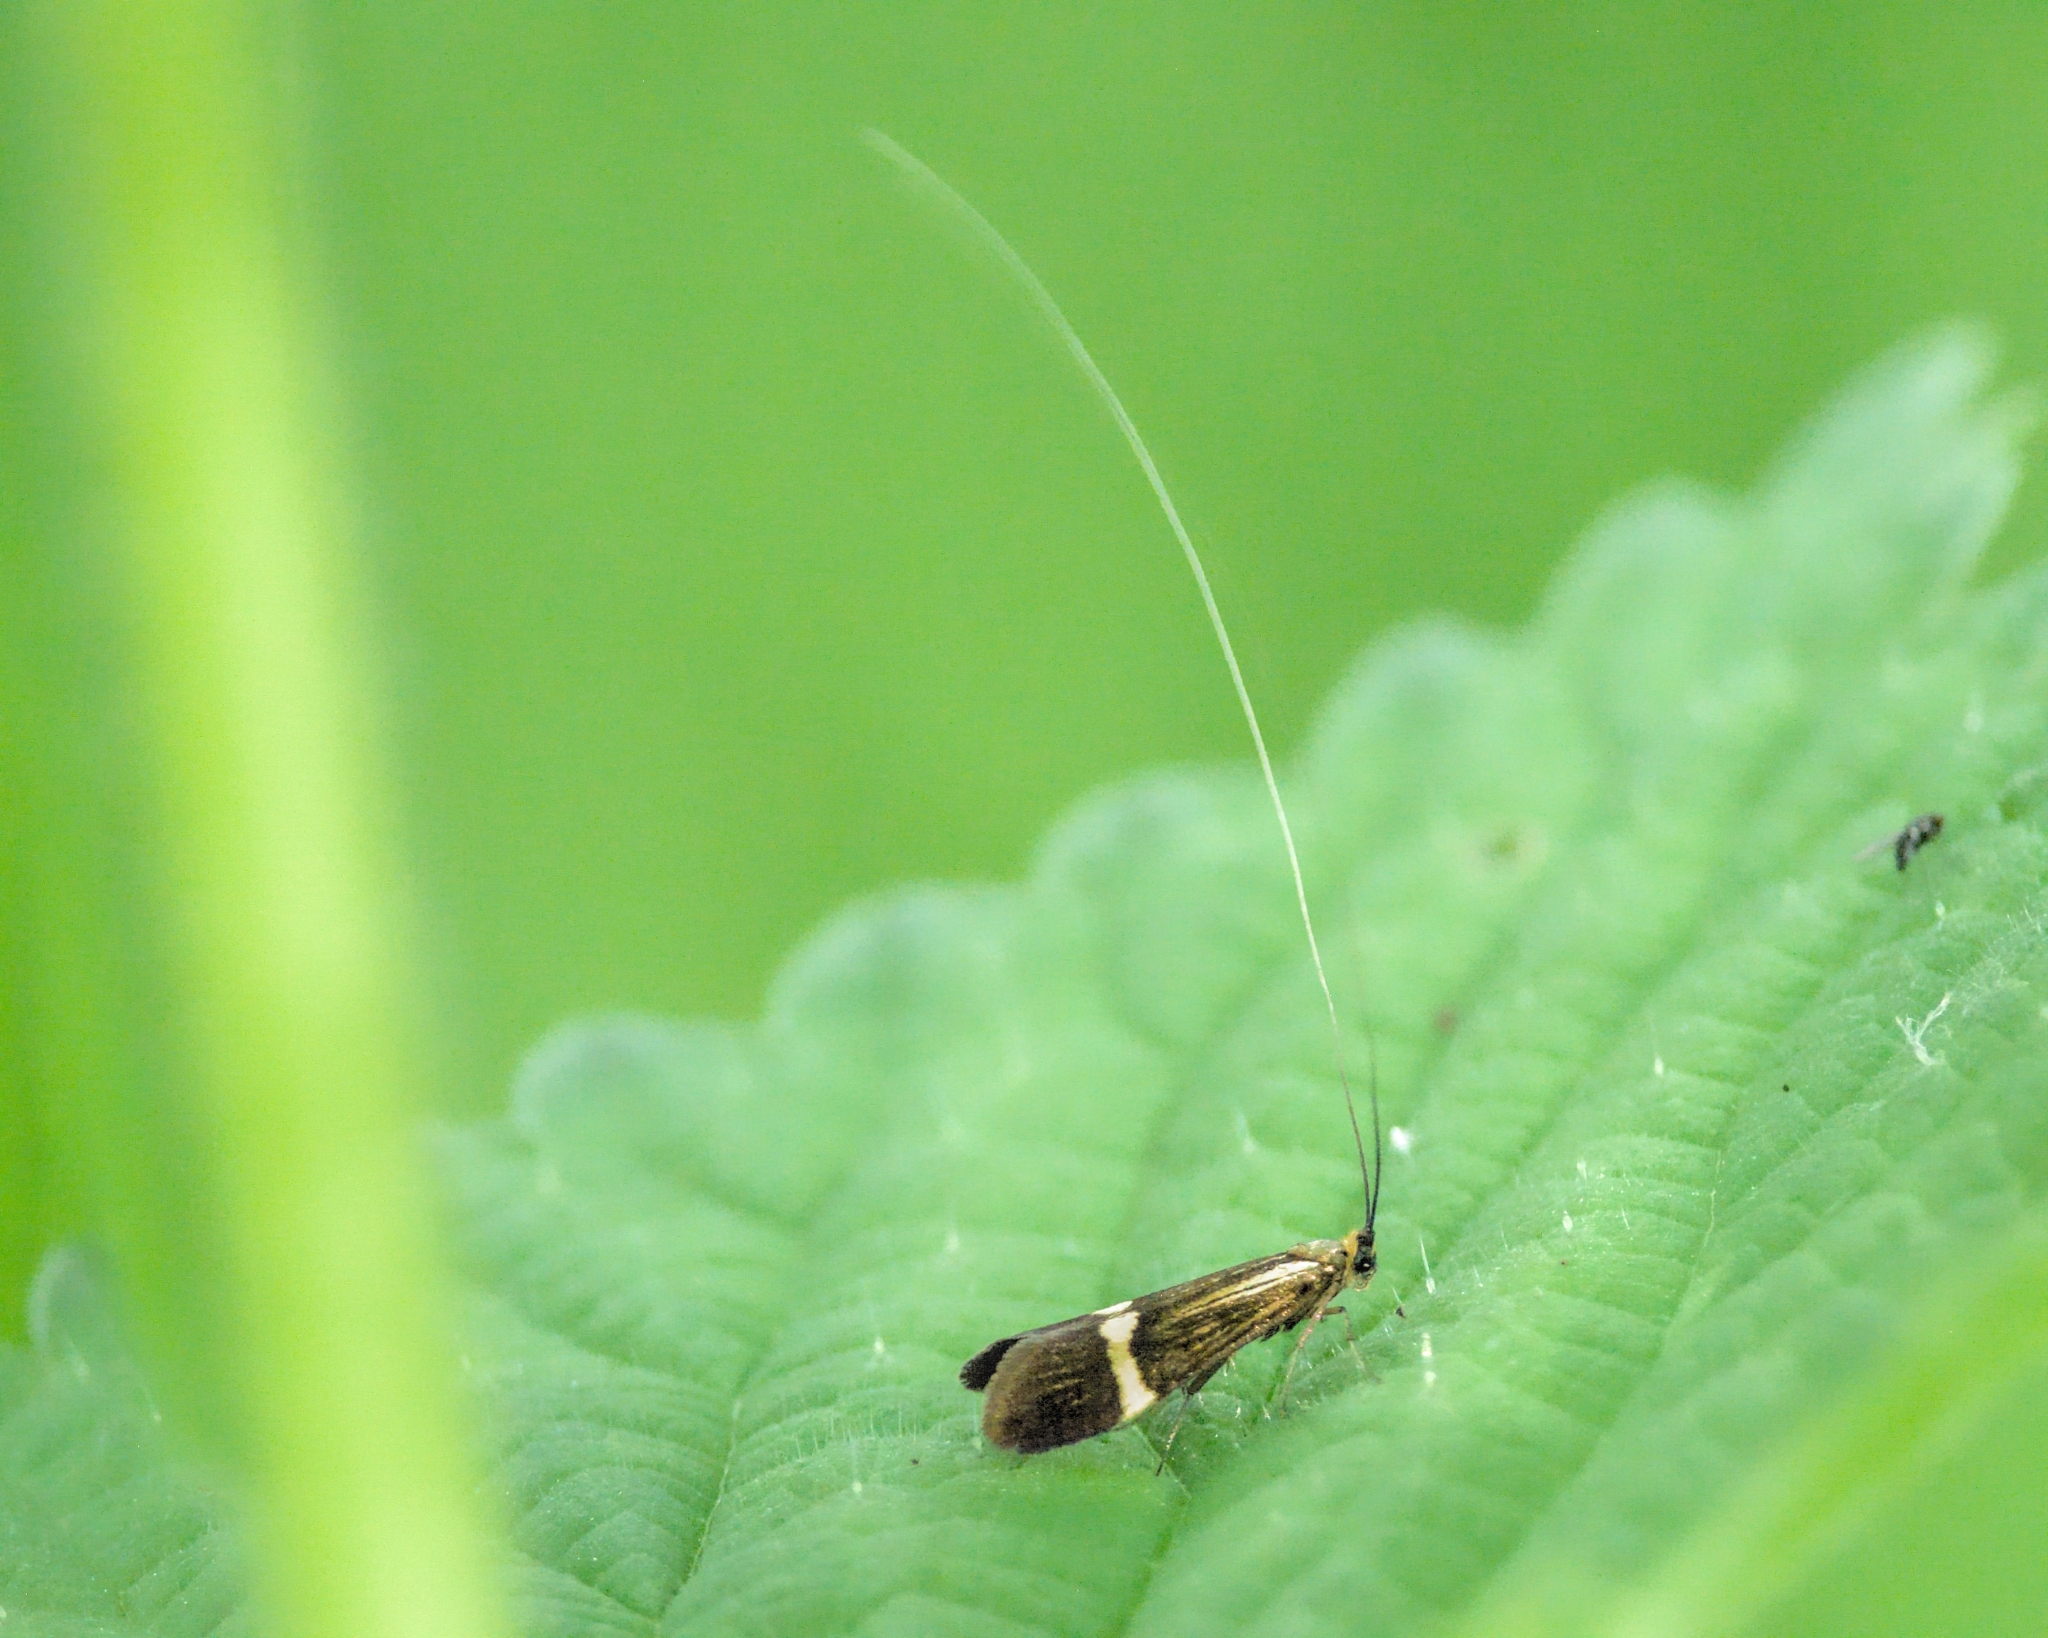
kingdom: Animalia
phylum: Arthropoda
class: Insecta
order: Lepidoptera
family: Adelidae
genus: Nemophora
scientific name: Nemophora degeerella
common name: Yellow-barred long-horn
